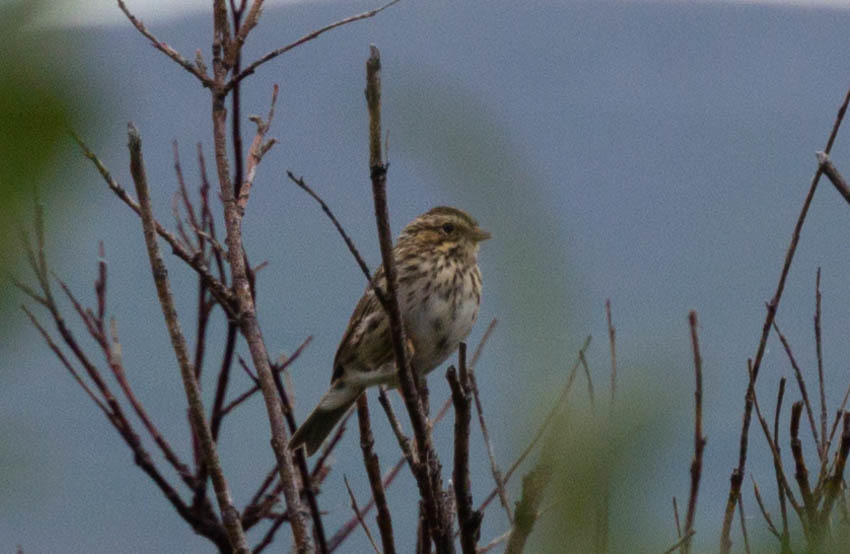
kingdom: Animalia
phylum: Chordata
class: Aves
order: Passeriformes
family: Passerellidae
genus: Passerculus
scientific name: Passerculus sandwichensis
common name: Savannah sparrow
